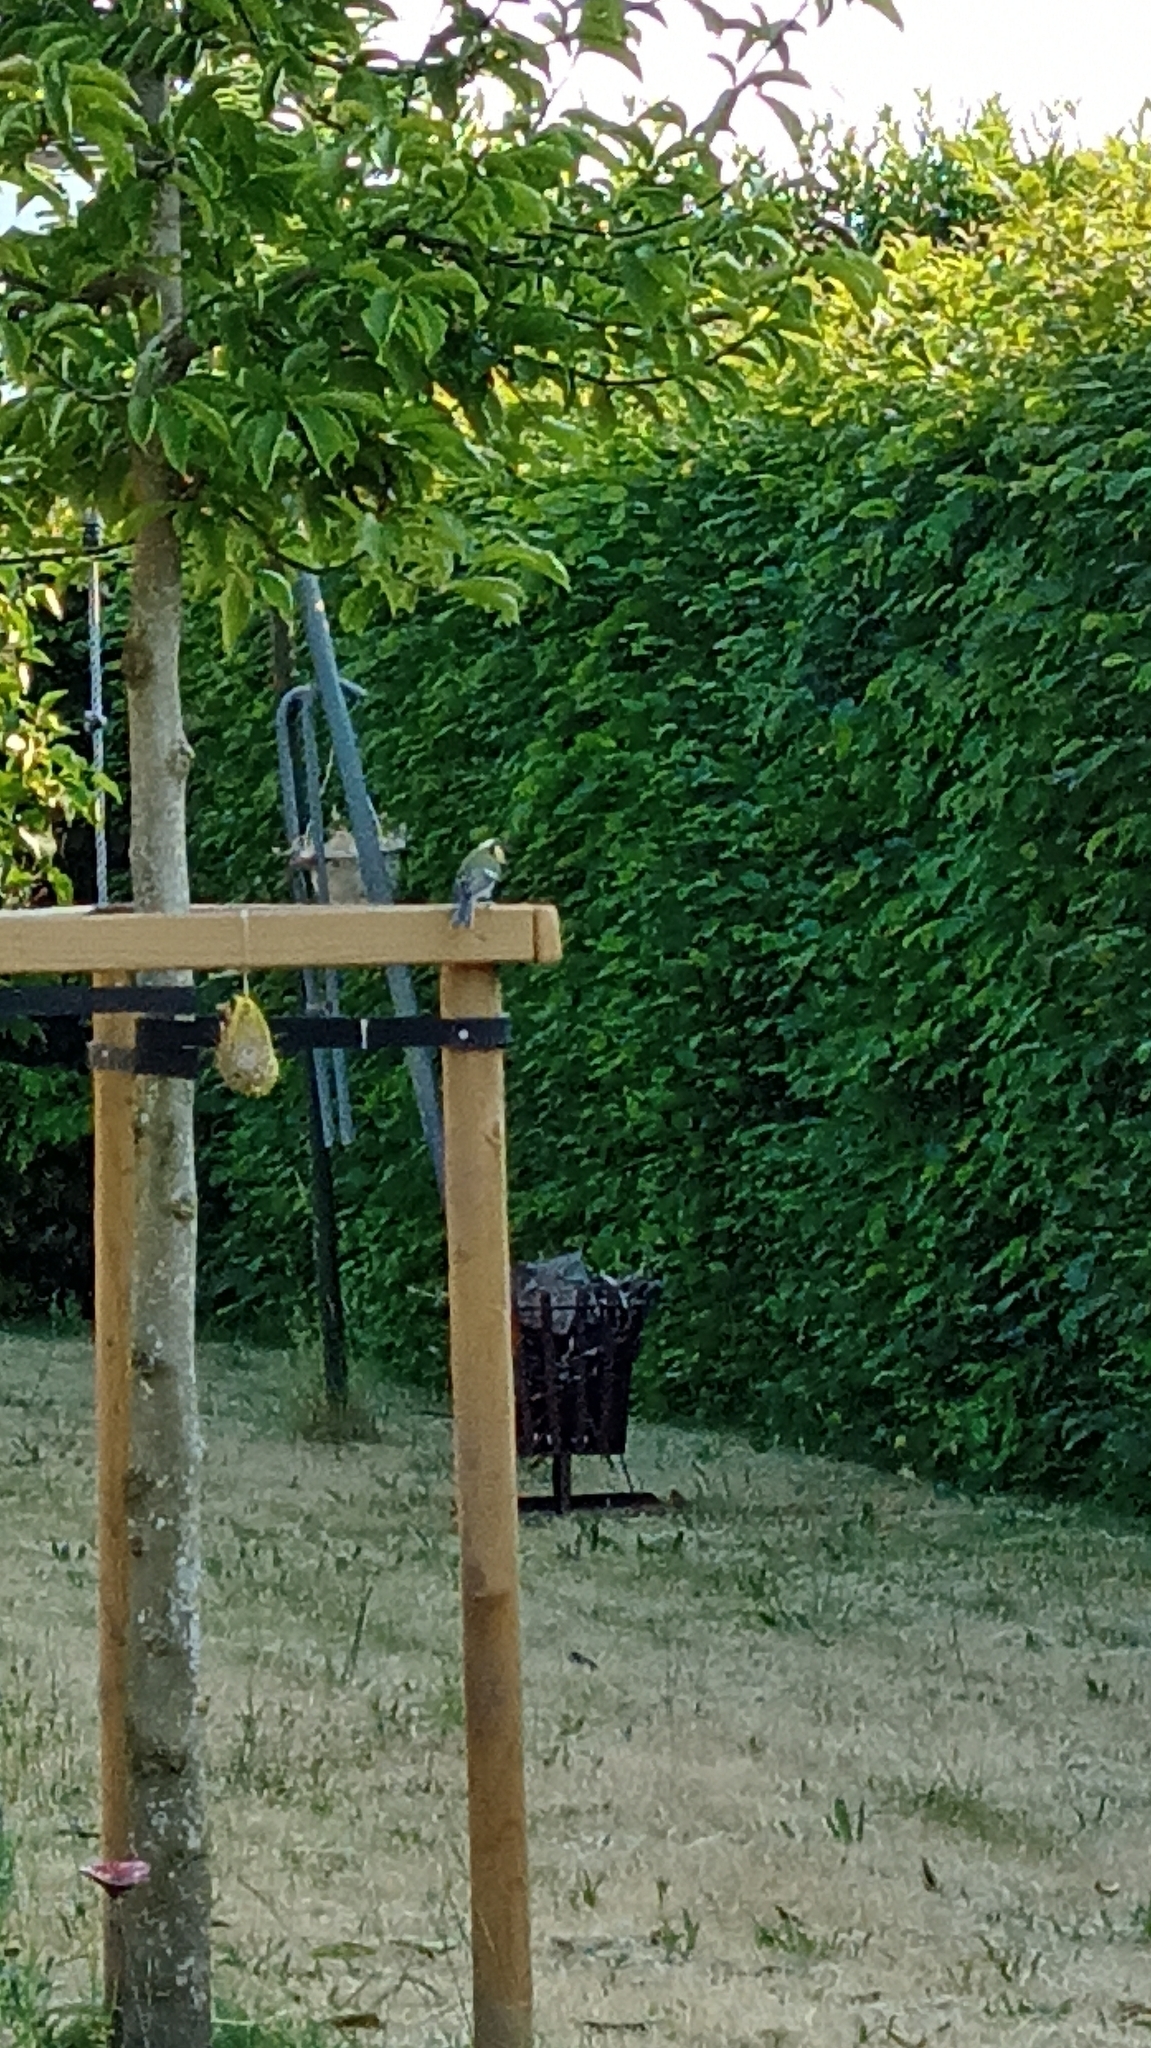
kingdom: Animalia
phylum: Chordata
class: Aves
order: Passeriformes
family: Paridae
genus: Parus
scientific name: Parus major
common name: Great tit
